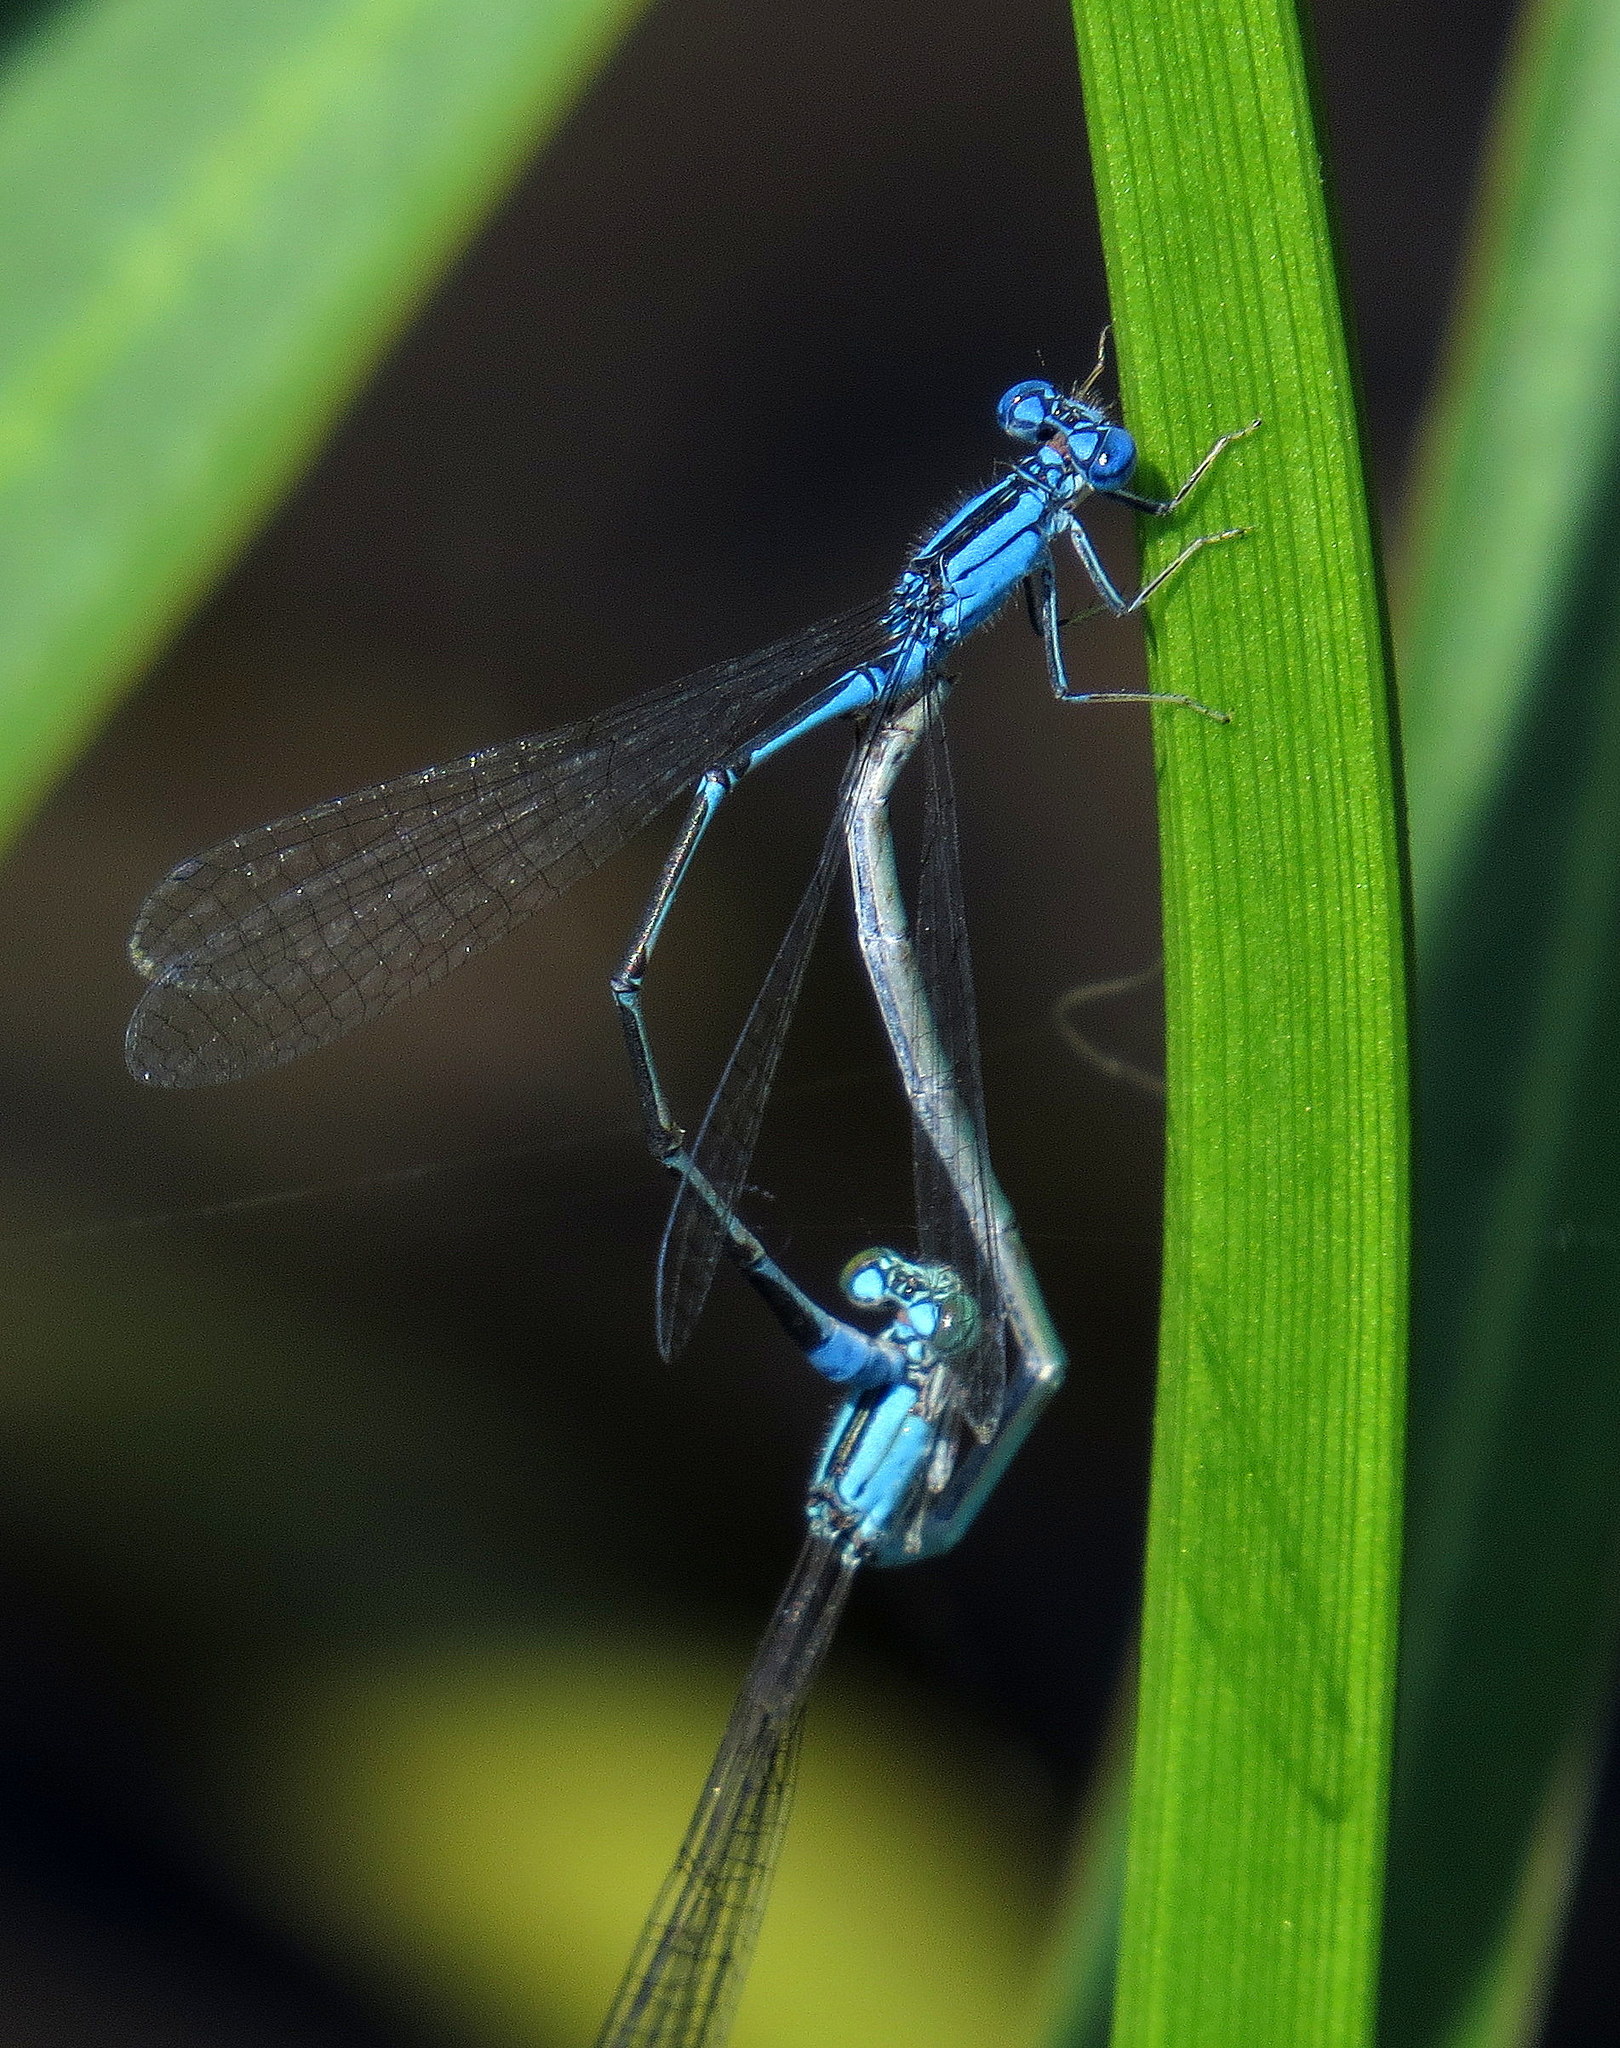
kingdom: Animalia
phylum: Arthropoda
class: Insecta
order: Odonata
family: Coenagrionidae
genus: Enallagma
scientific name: Enallagma traviatum
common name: Slender bluet
